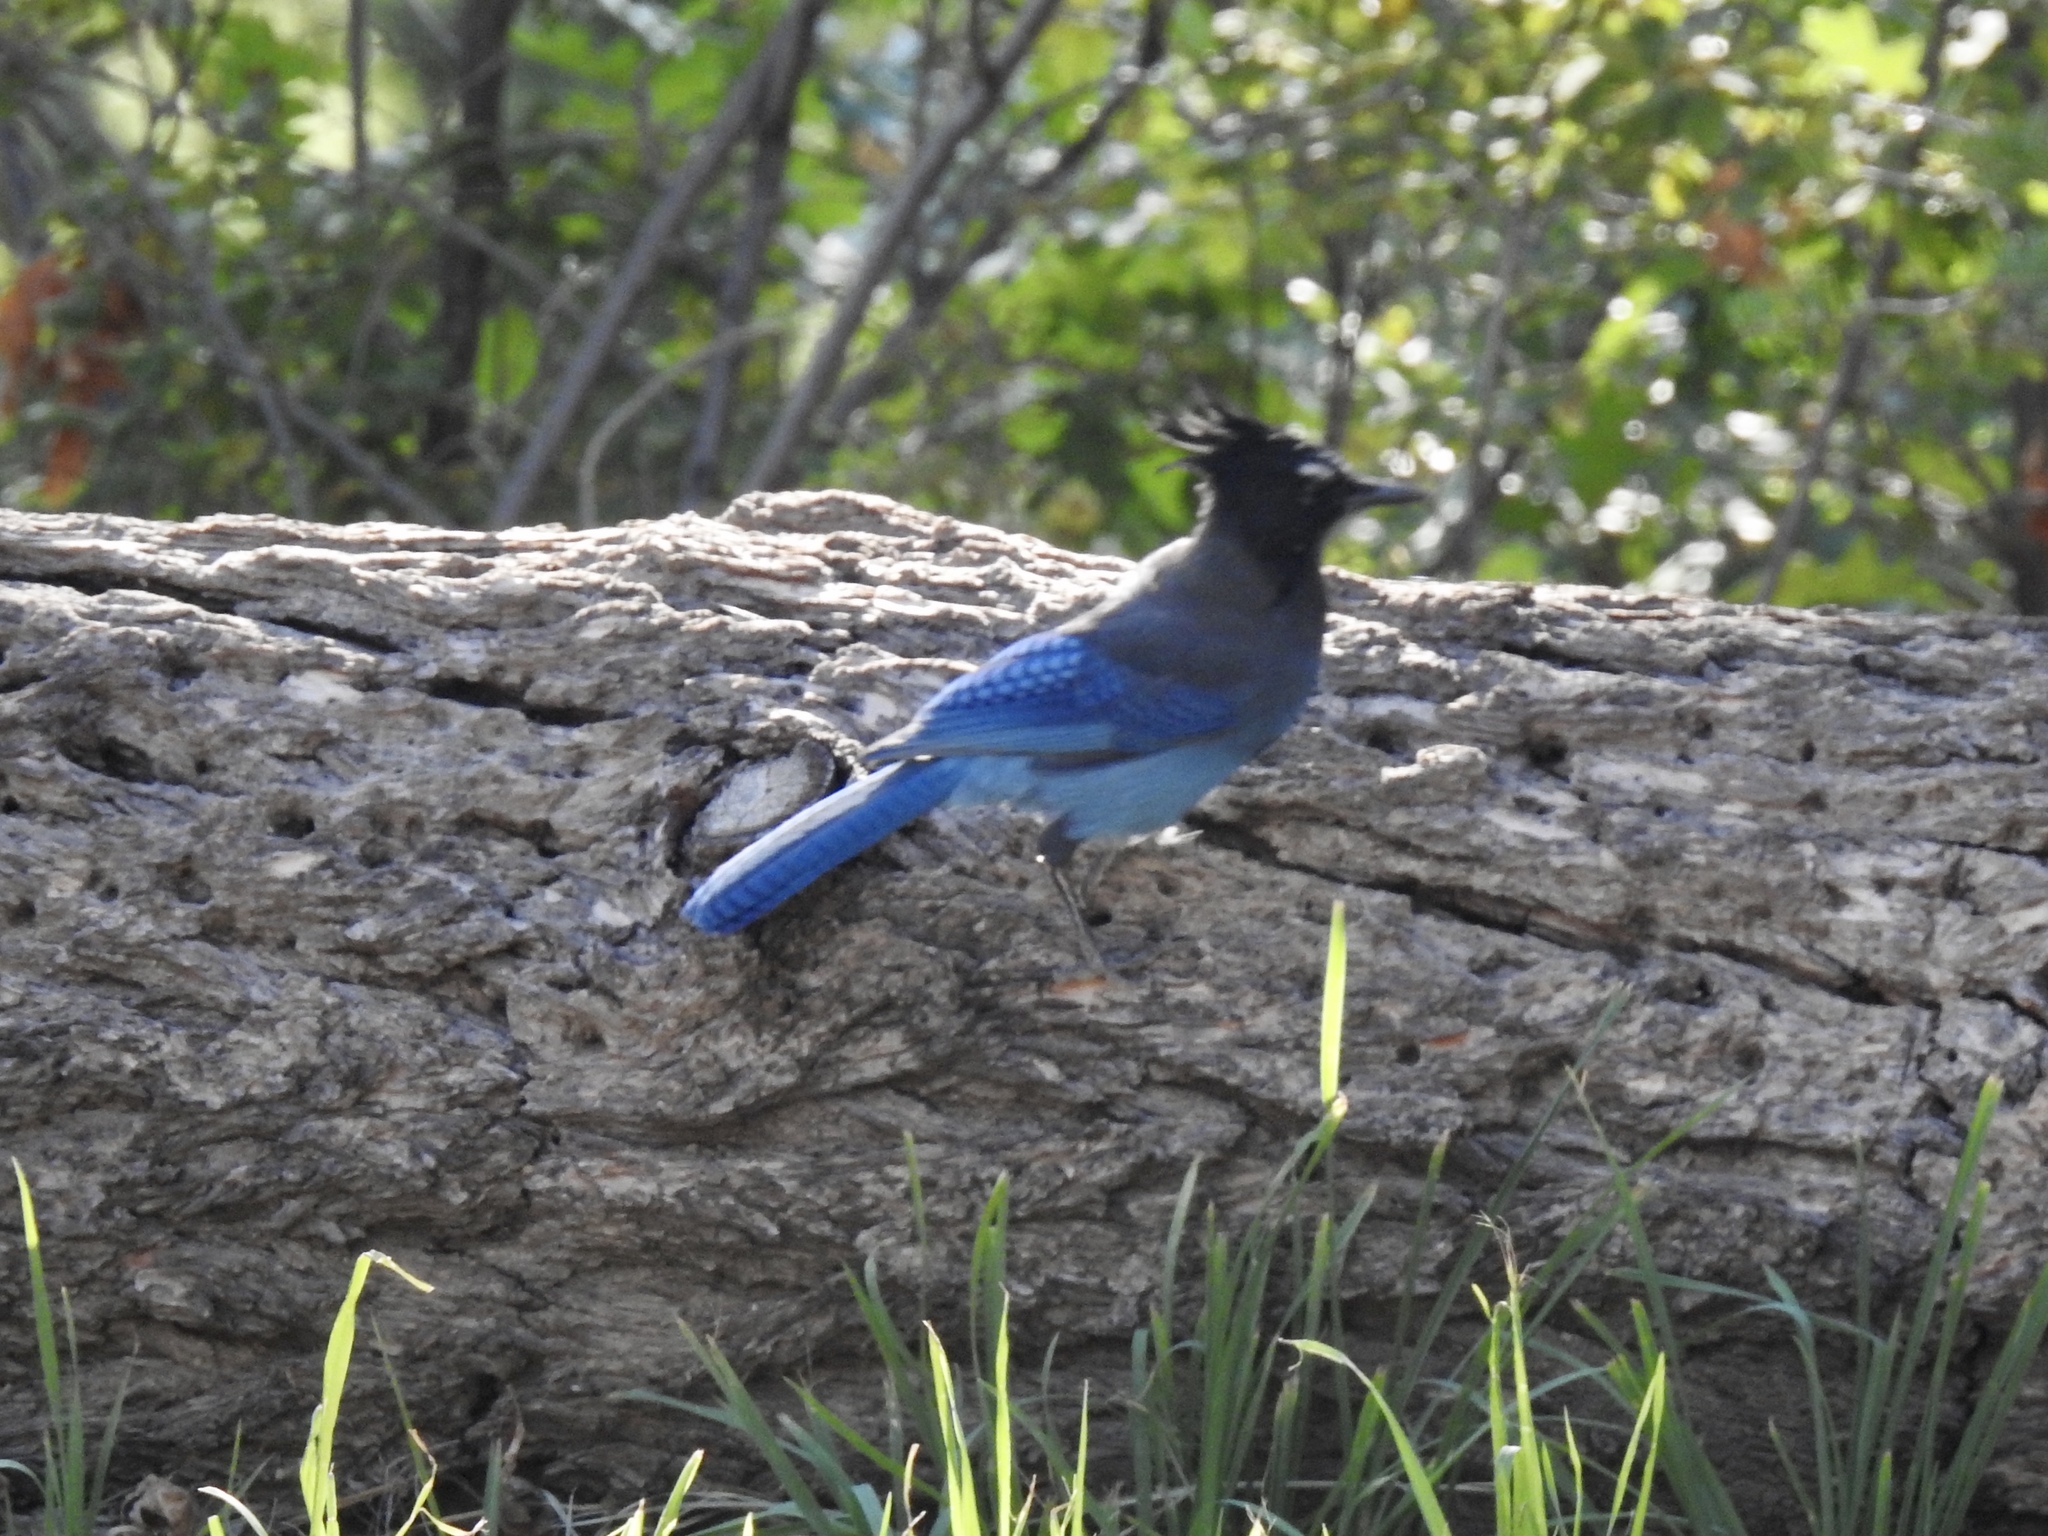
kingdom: Animalia
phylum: Chordata
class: Aves
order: Passeriformes
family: Corvidae
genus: Cyanocitta
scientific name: Cyanocitta stelleri
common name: Steller's jay
